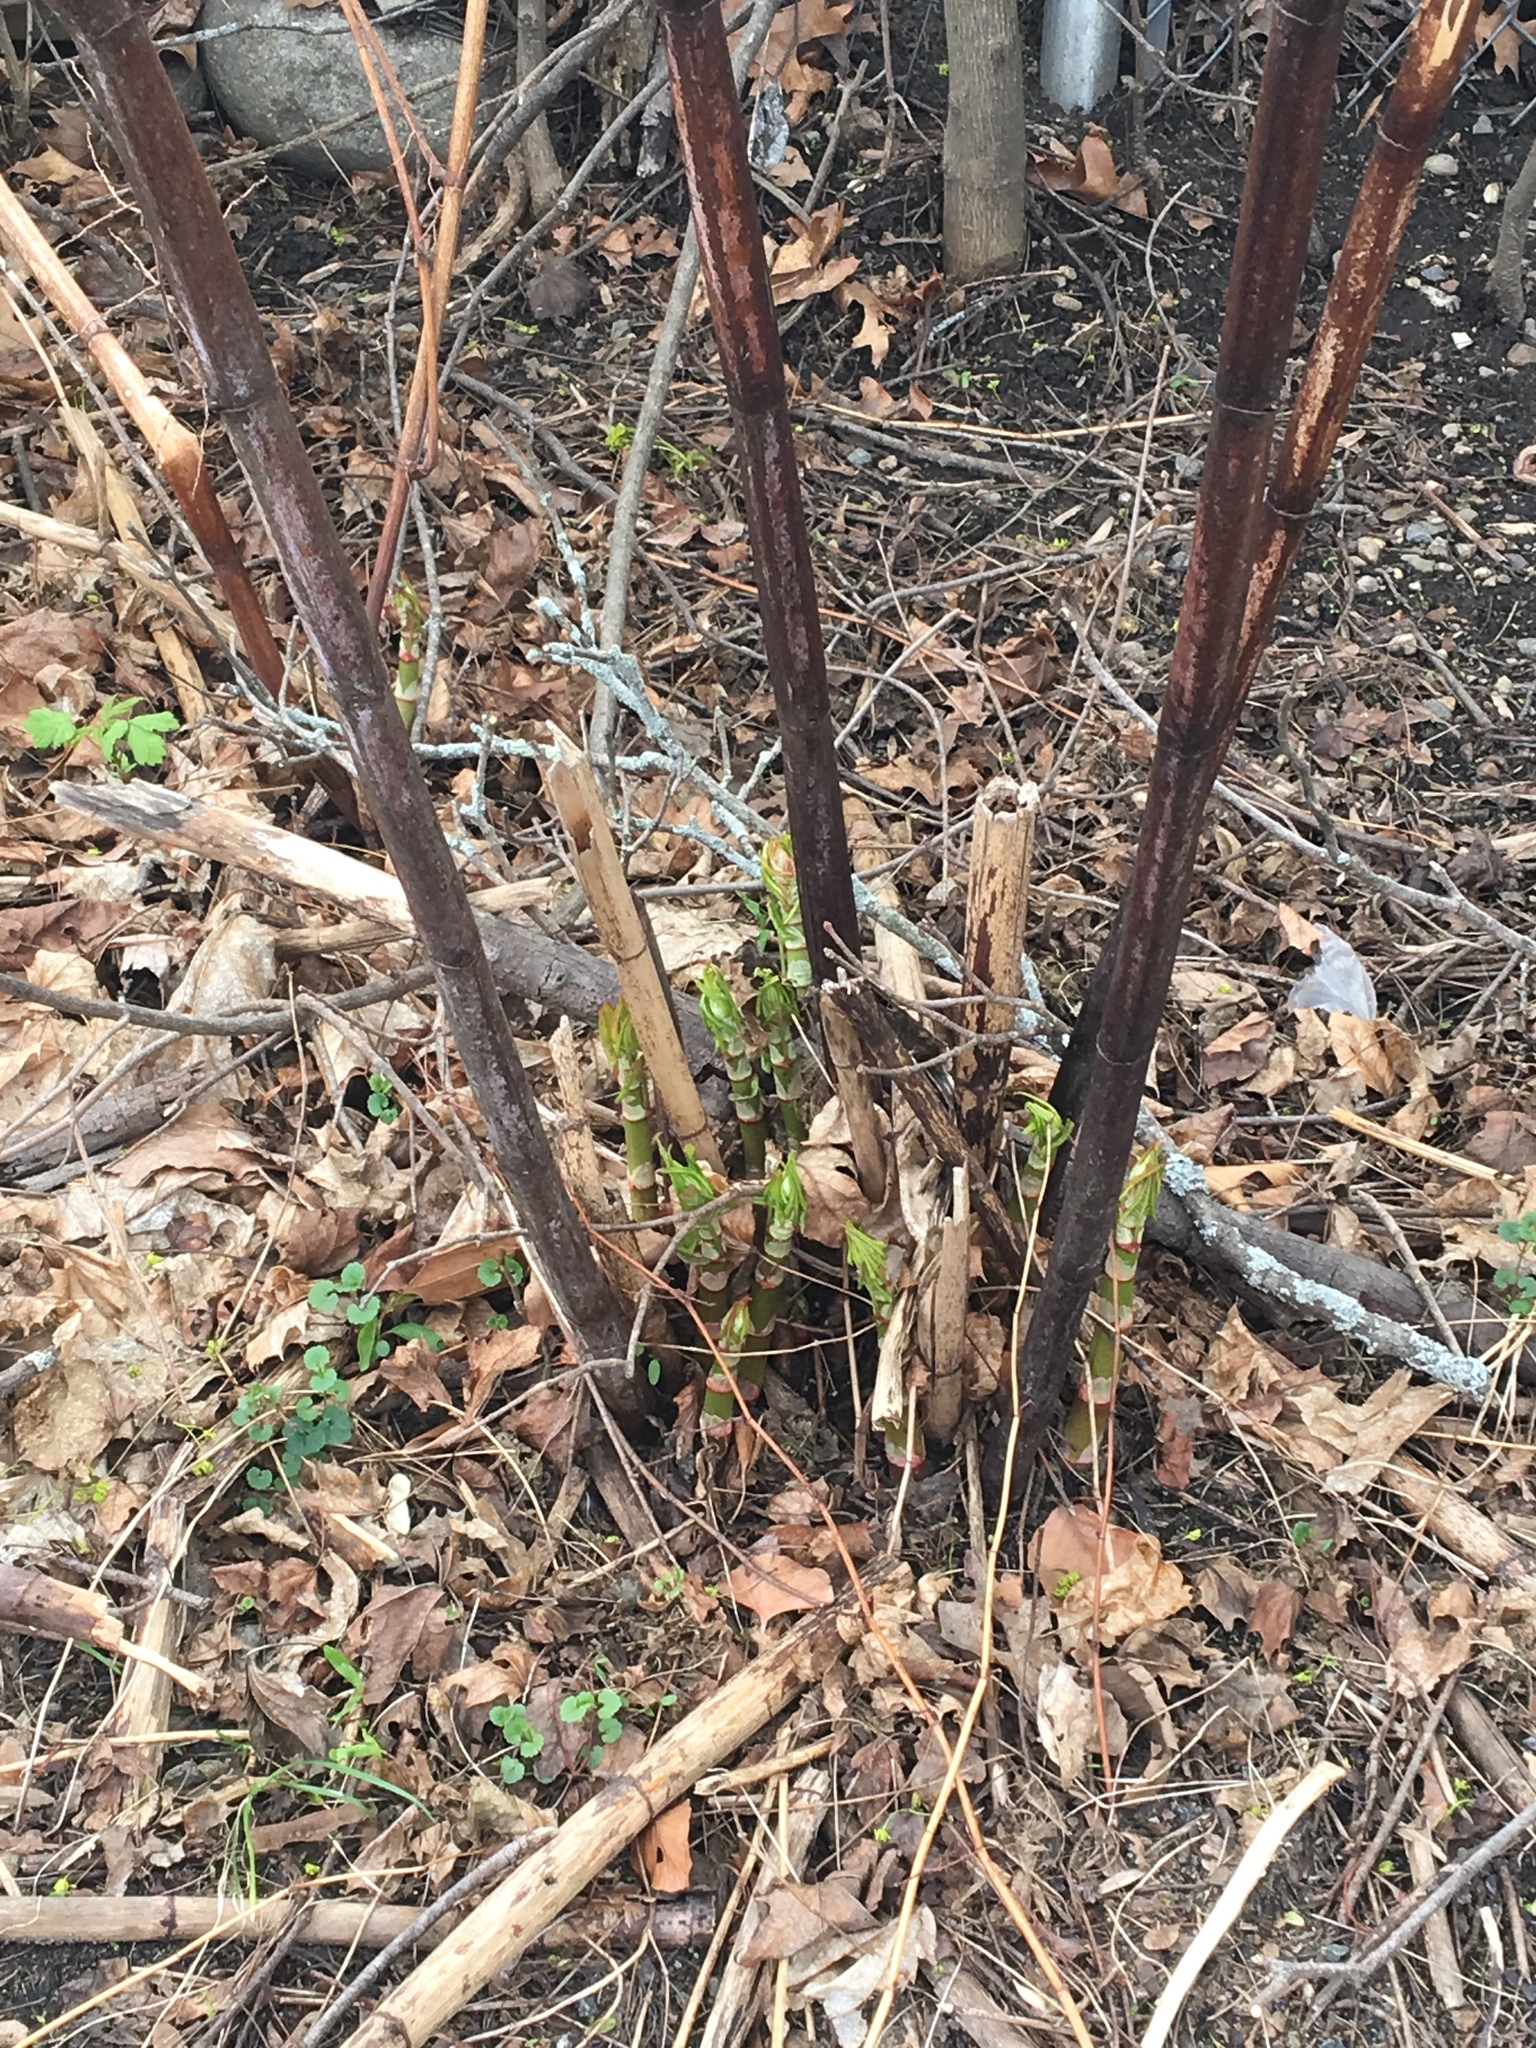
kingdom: Plantae
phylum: Tracheophyta
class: Magnoliopsida
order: Caryophyllales
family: Polygonaceae
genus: Reynoutria
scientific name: Reynoutria japonica
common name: Japanese knotweed
